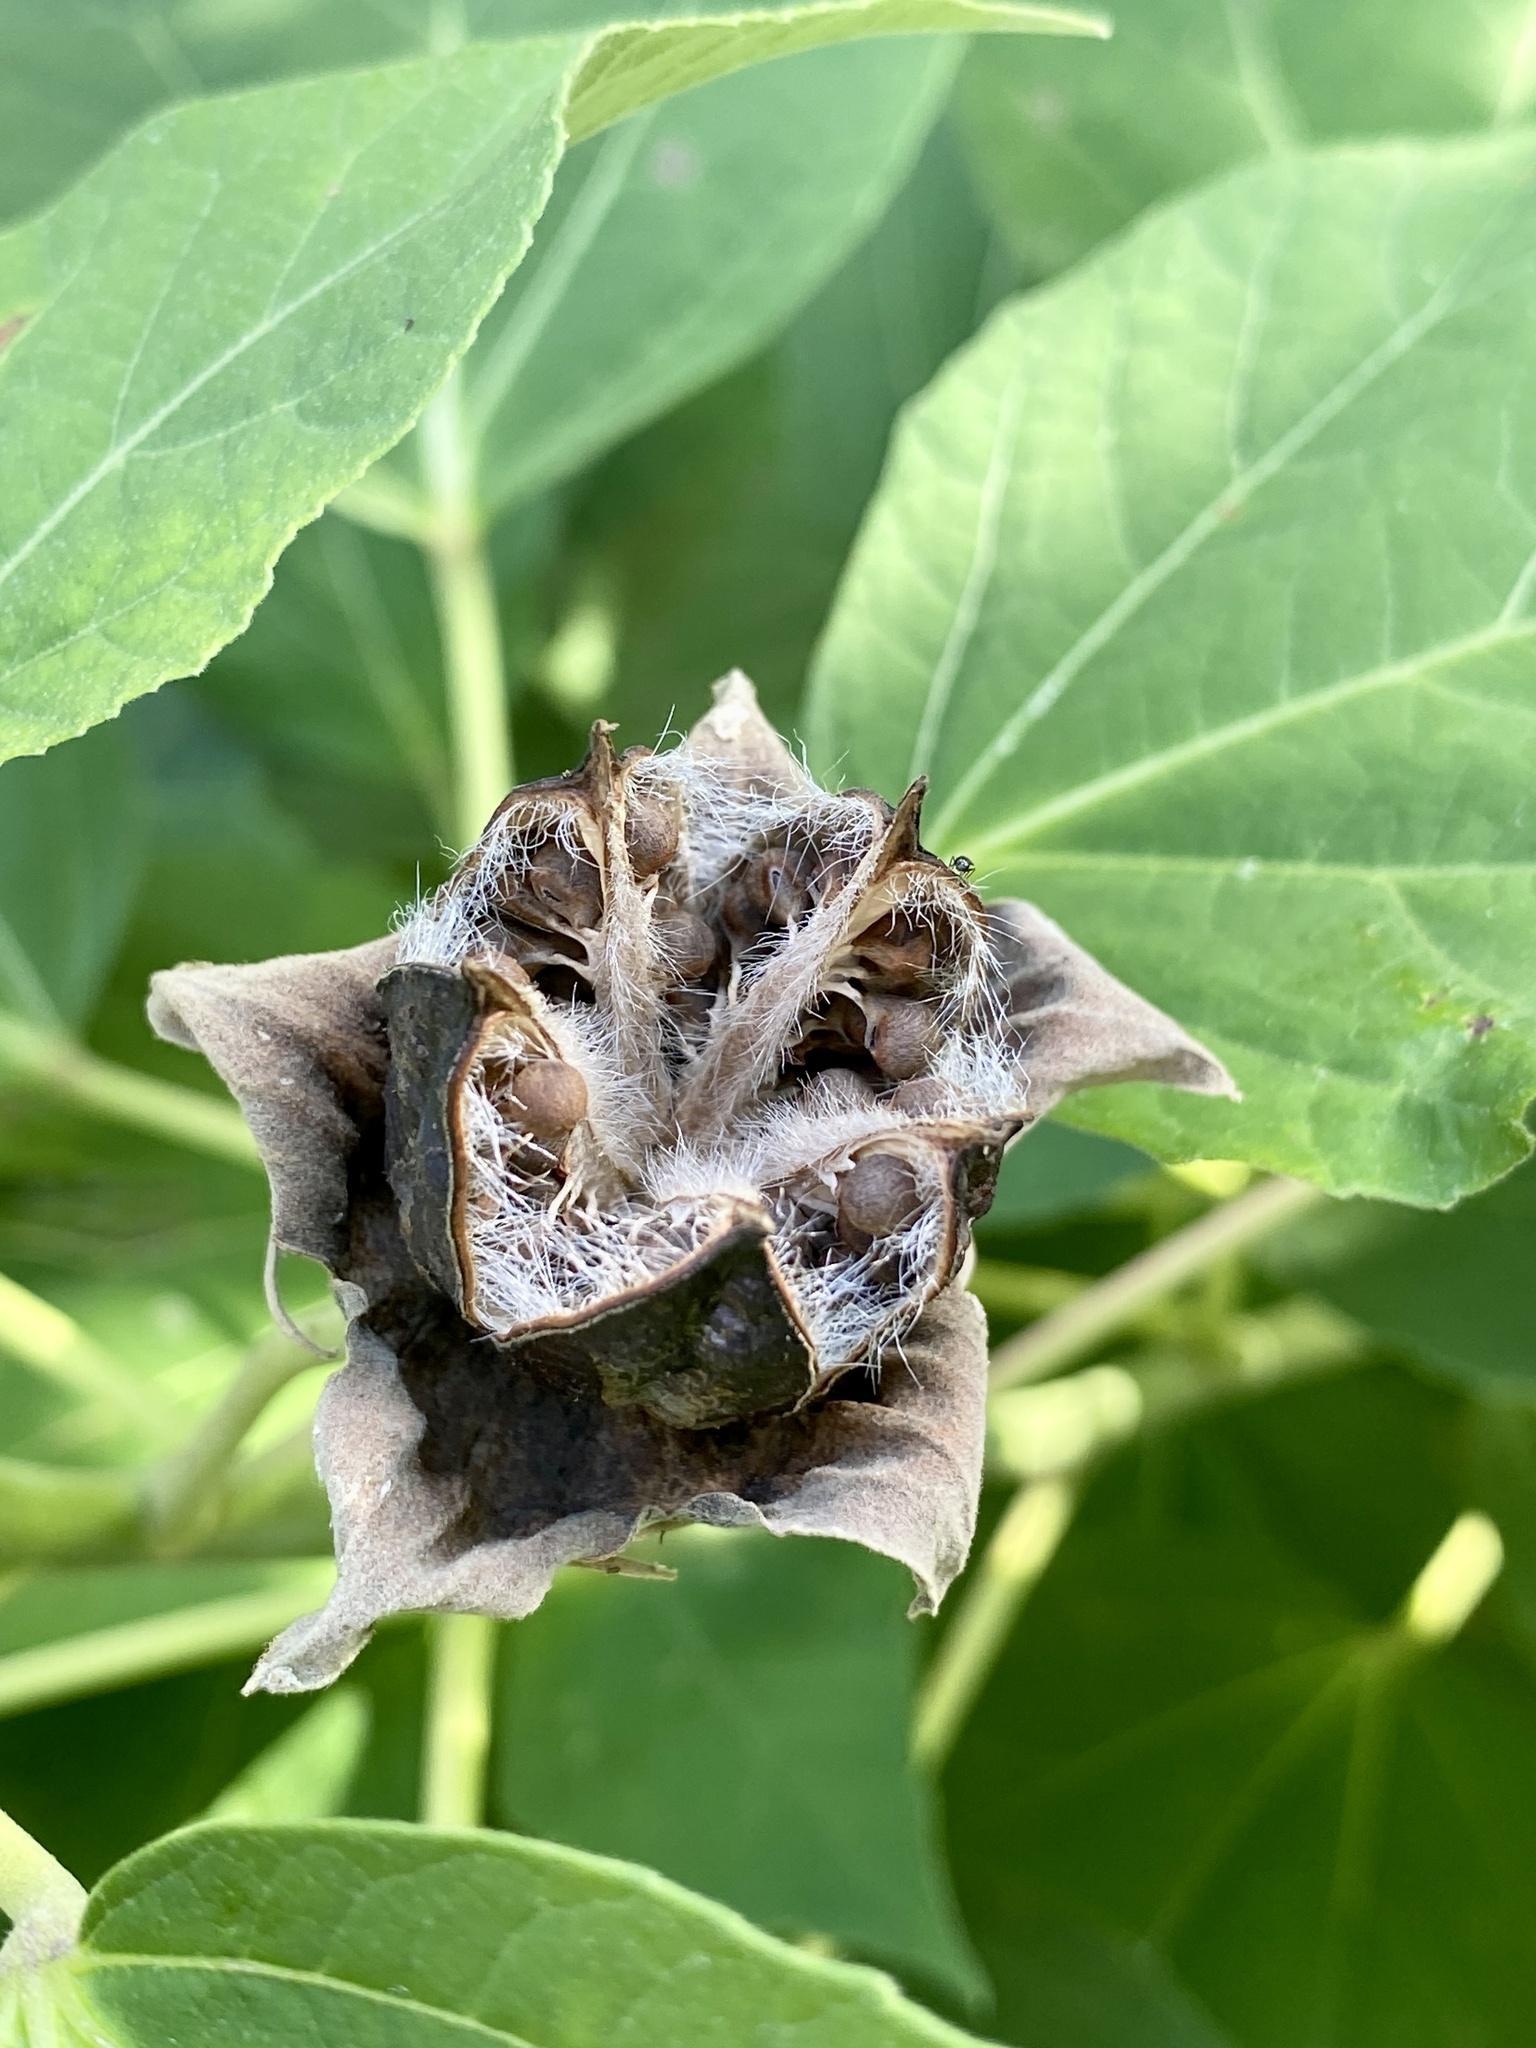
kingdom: Plantae
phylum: Tracheophyta
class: Magnoliopsida
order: Malvales
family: Malvaceae
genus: Hibiscus
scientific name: Hibiscus moscheutos
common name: Common rose-mallow
